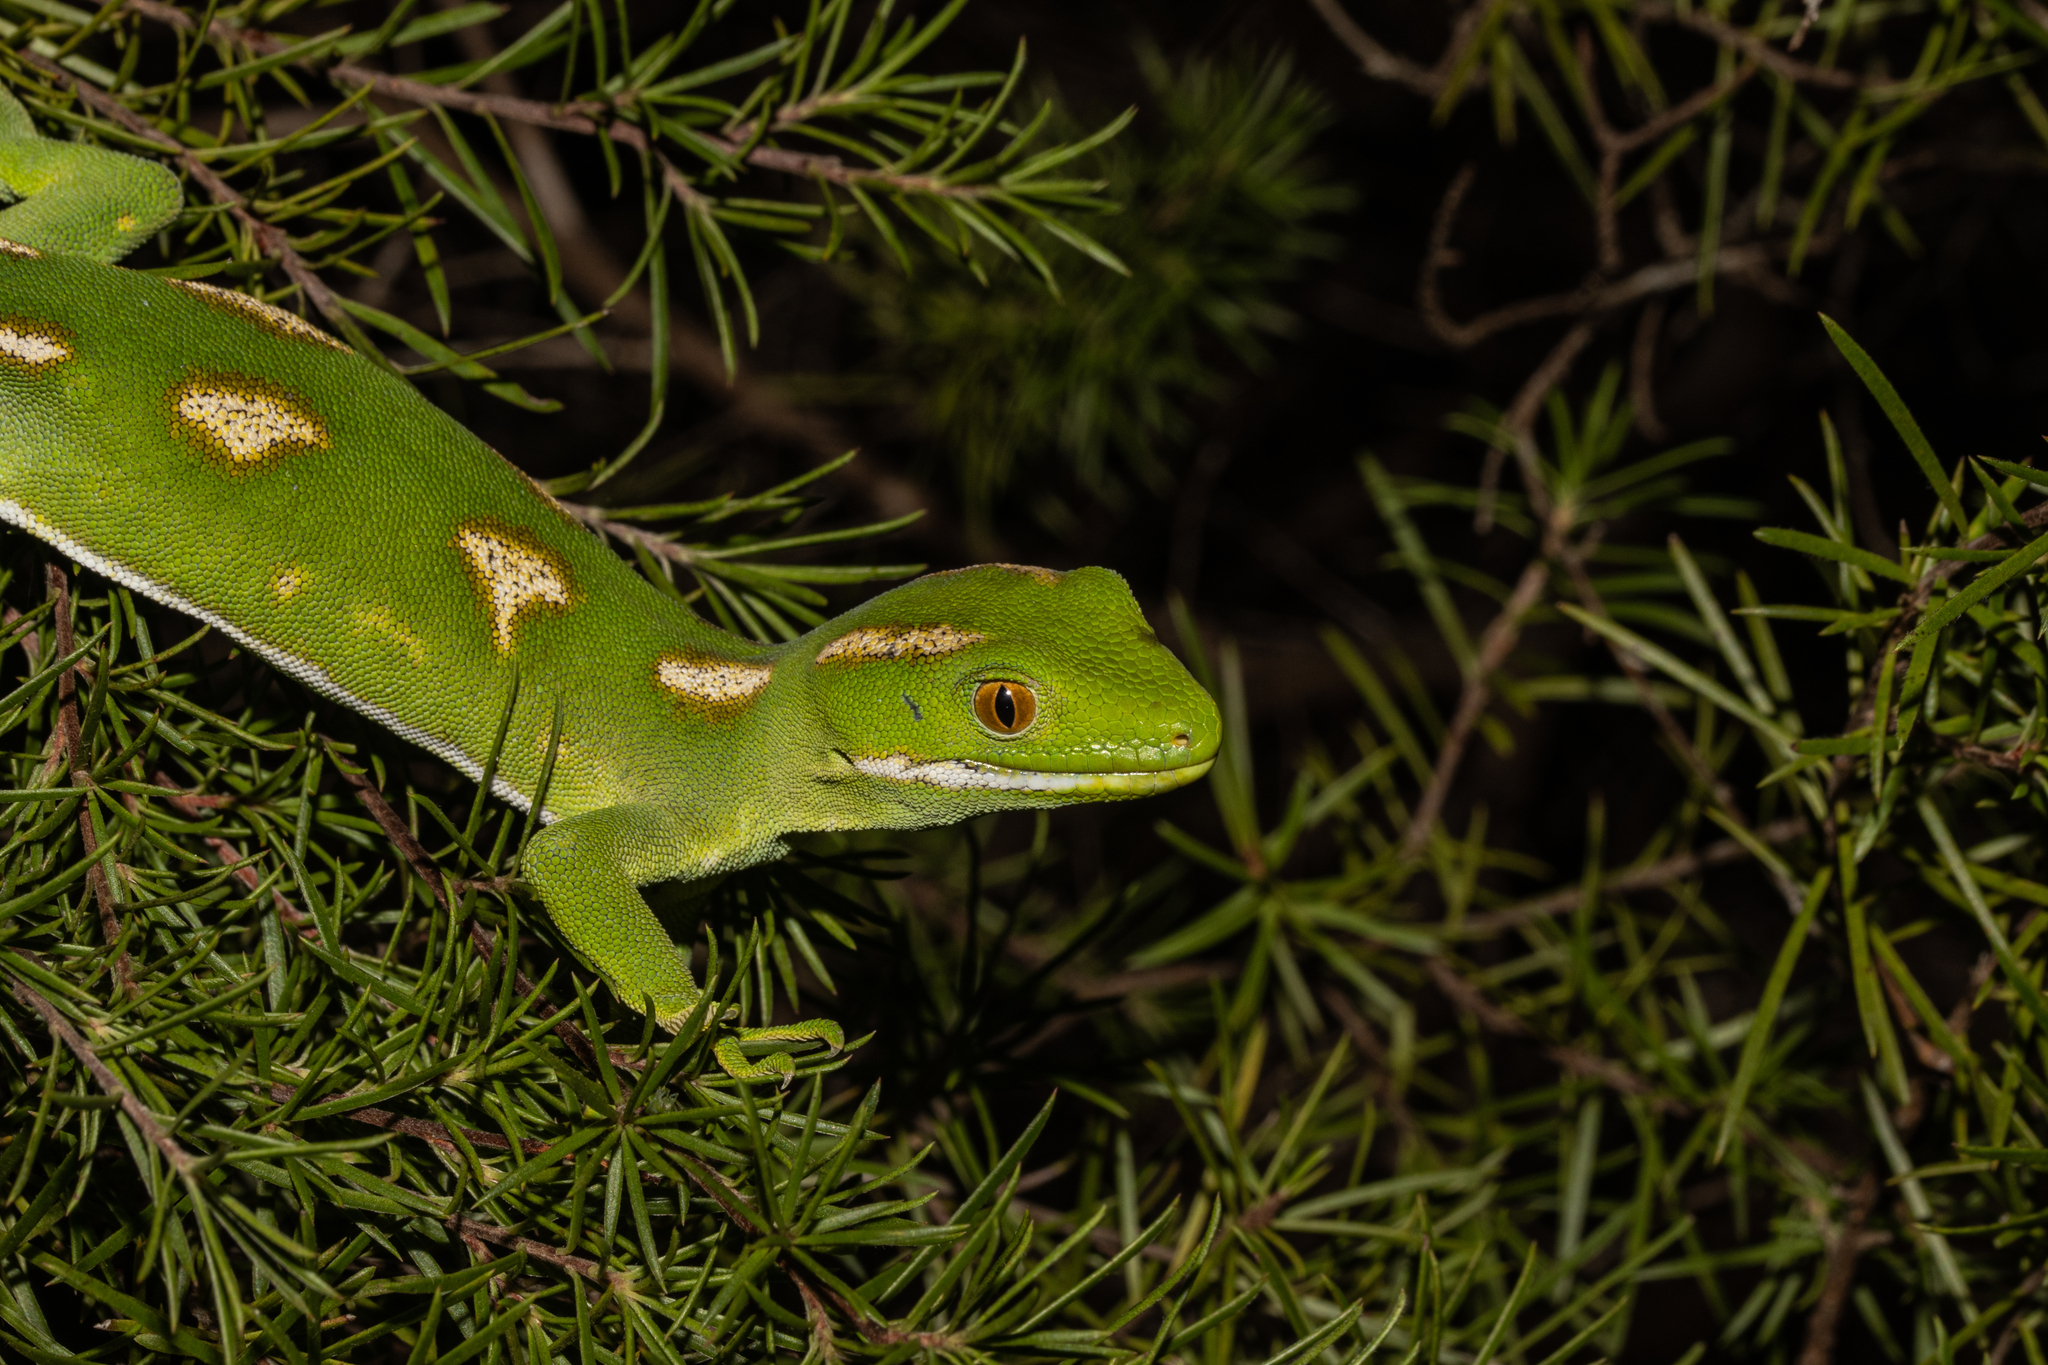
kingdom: Animalia
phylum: Chordata
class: Squamata
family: Diplodactylidae
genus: Naultinus
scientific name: Naultinus grayii
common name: Gray's tree gecko
